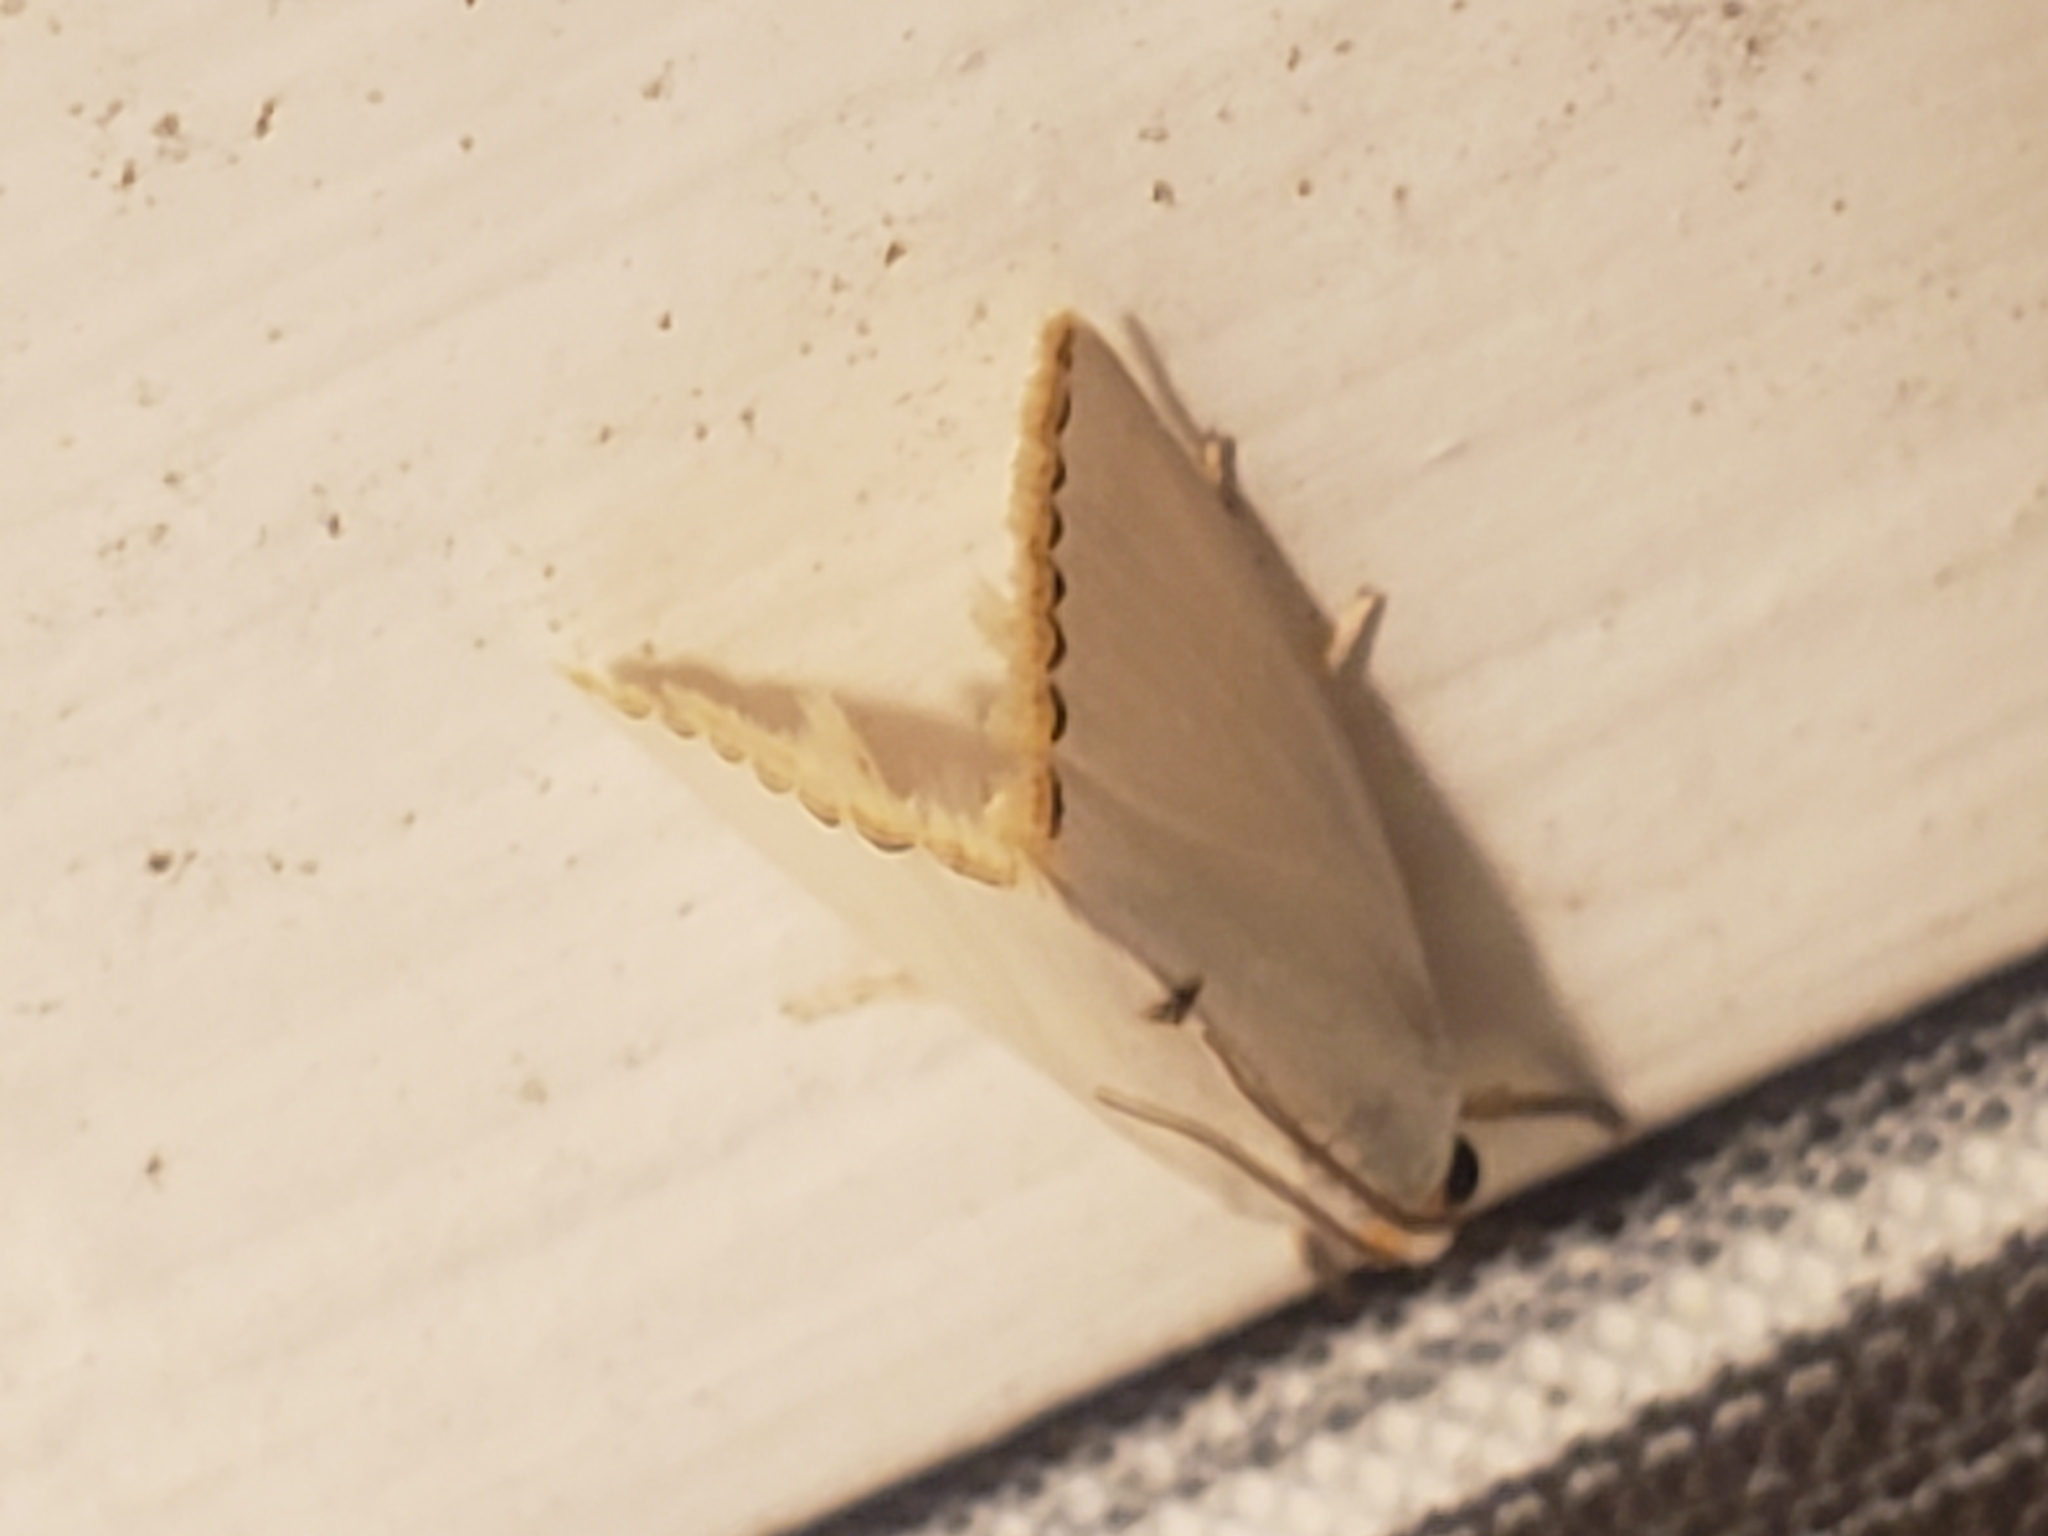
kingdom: Animalia
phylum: Arthropoda
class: Insecta
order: Lepidoptera
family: Crambidae
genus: Argyria
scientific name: Argyria nivalis
